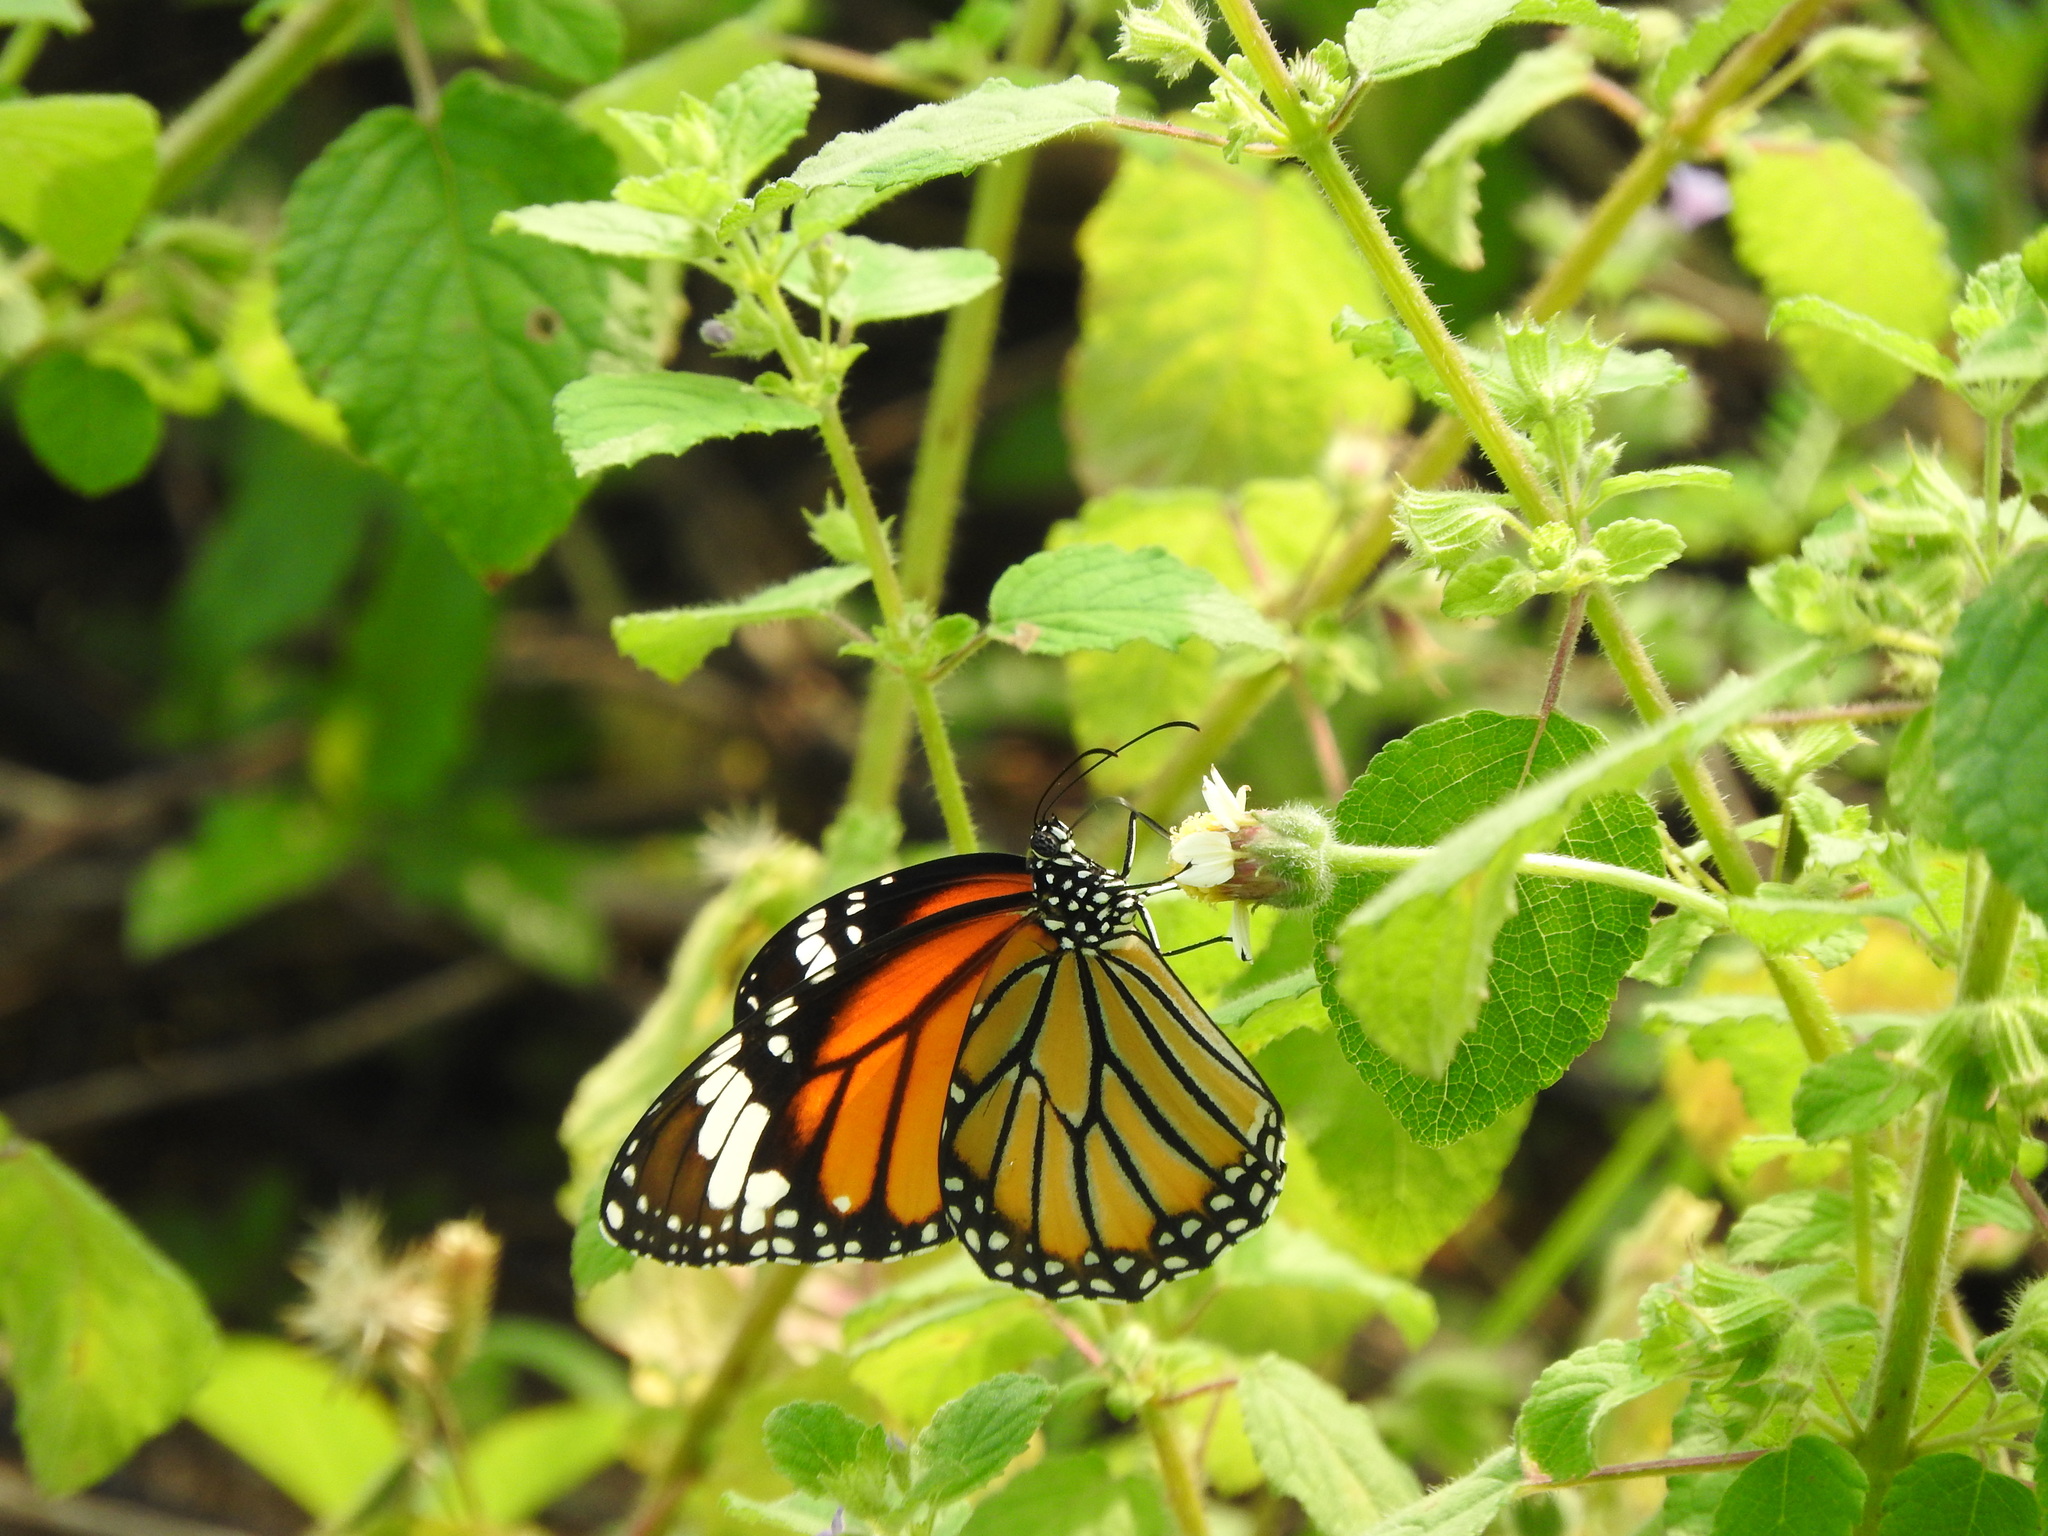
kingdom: Animalia
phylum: Arthropoda
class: Insecta
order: Lepidoptera
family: Nymphalidae
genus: Danaus
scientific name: Danaus genutia
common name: Common tiger butterfly
